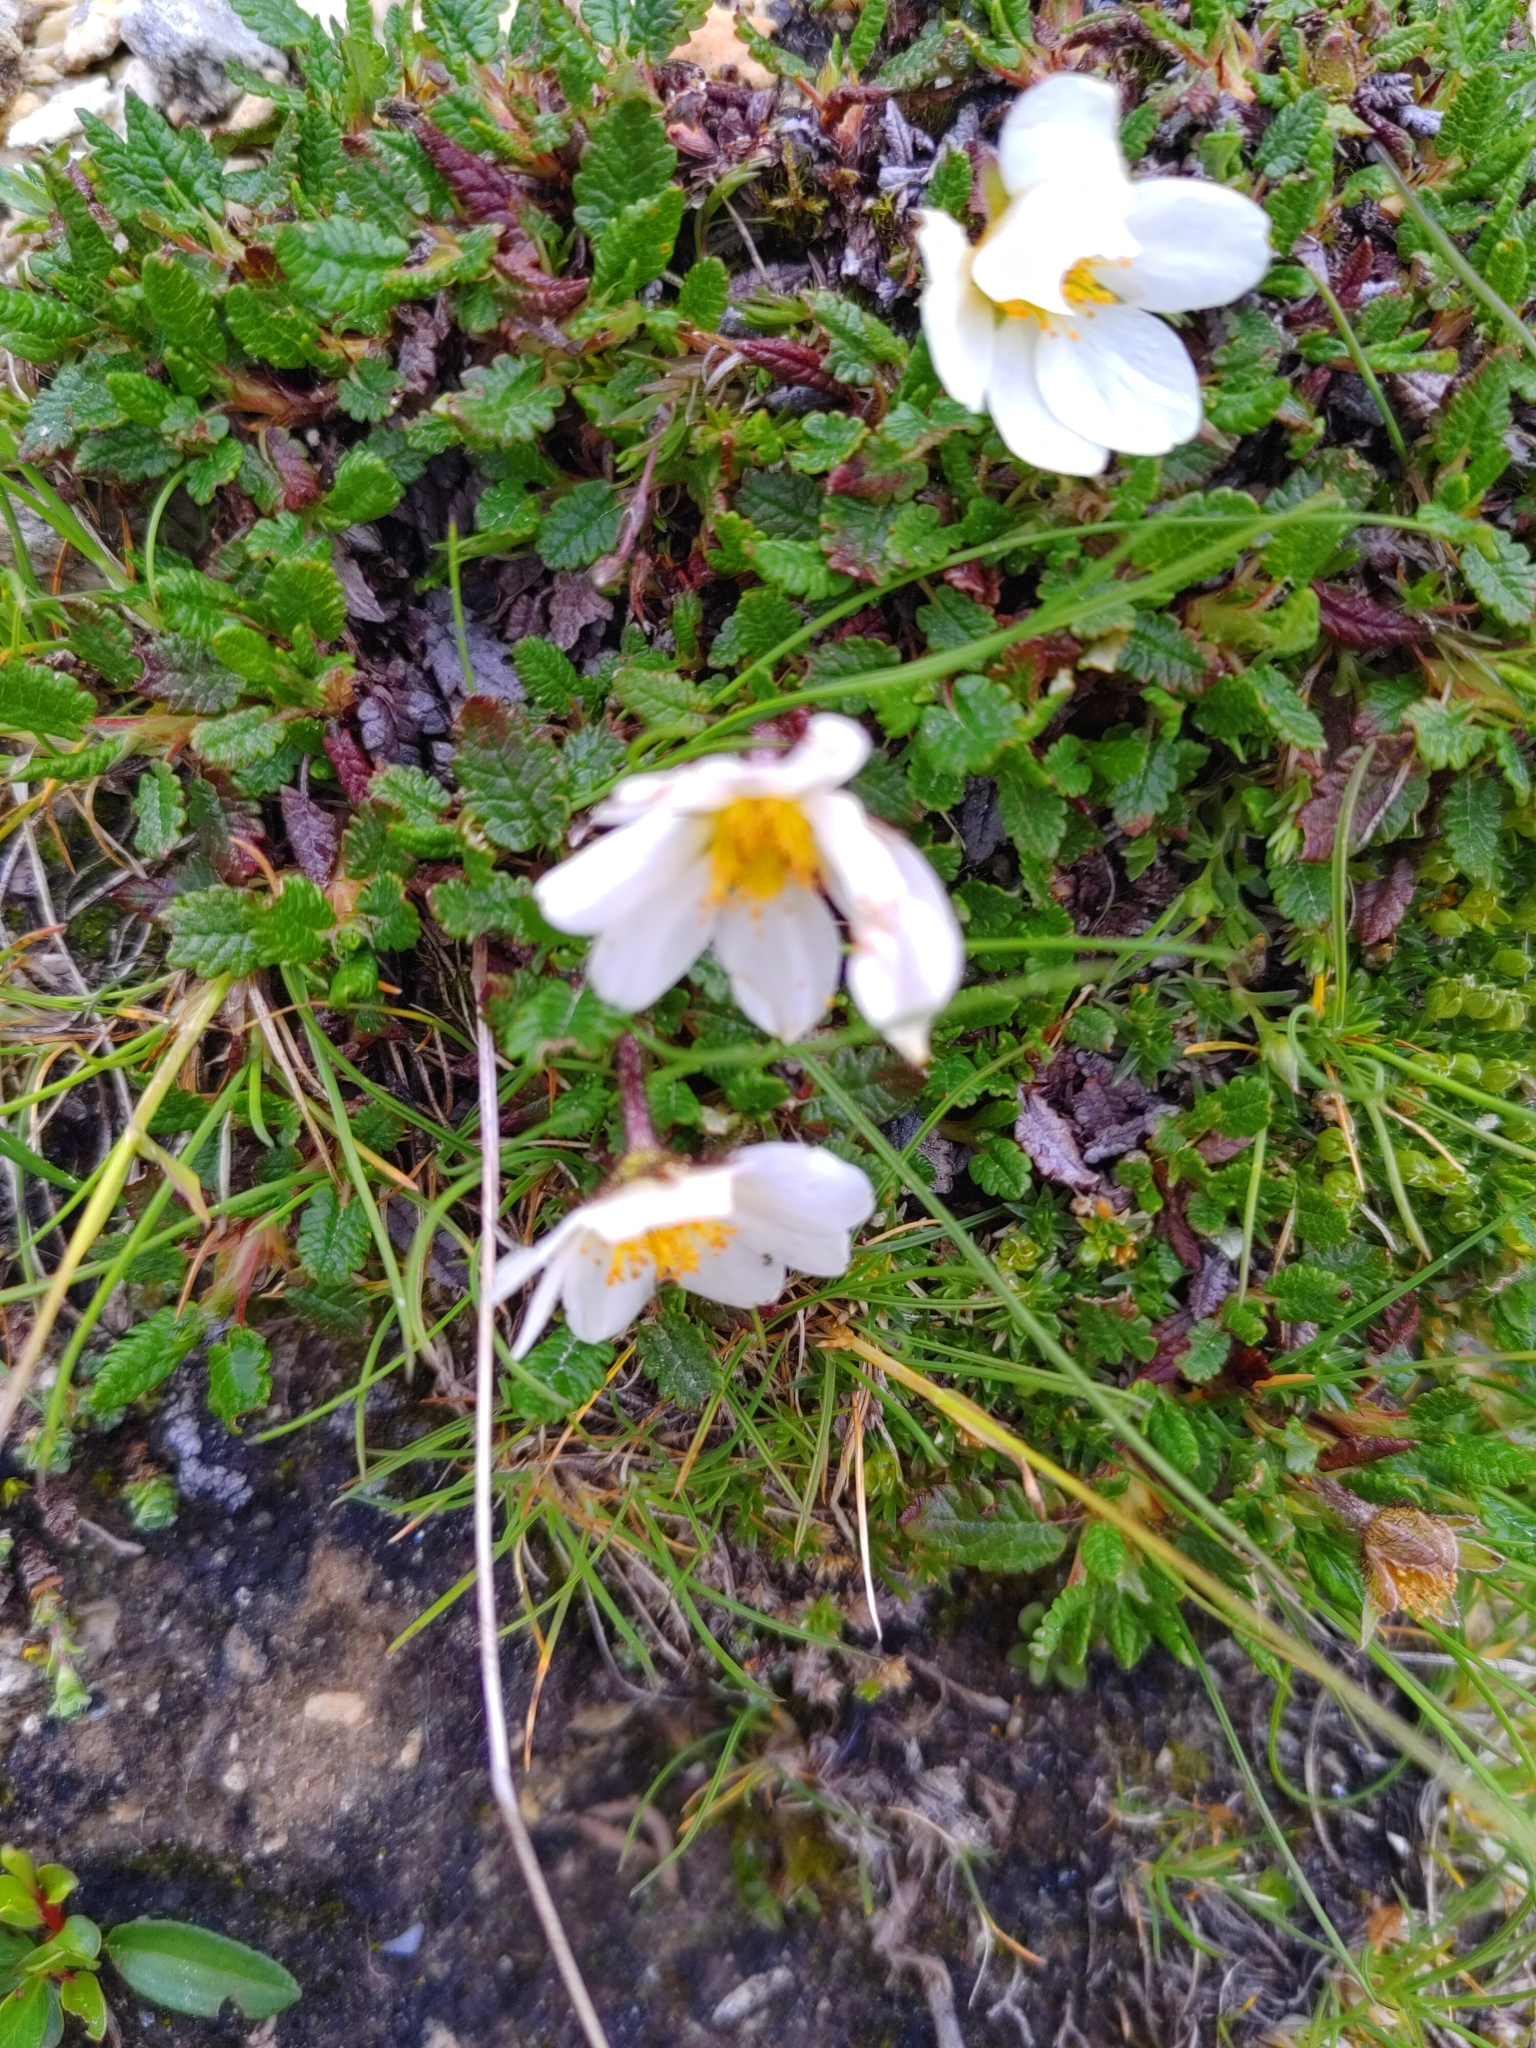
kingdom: Plantae
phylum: Tracheophyta
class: Magnoliopsida
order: Rosales
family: Rosaceae
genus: Dryas
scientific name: Dryas octopetala
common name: Eight-petal mountain-avens
